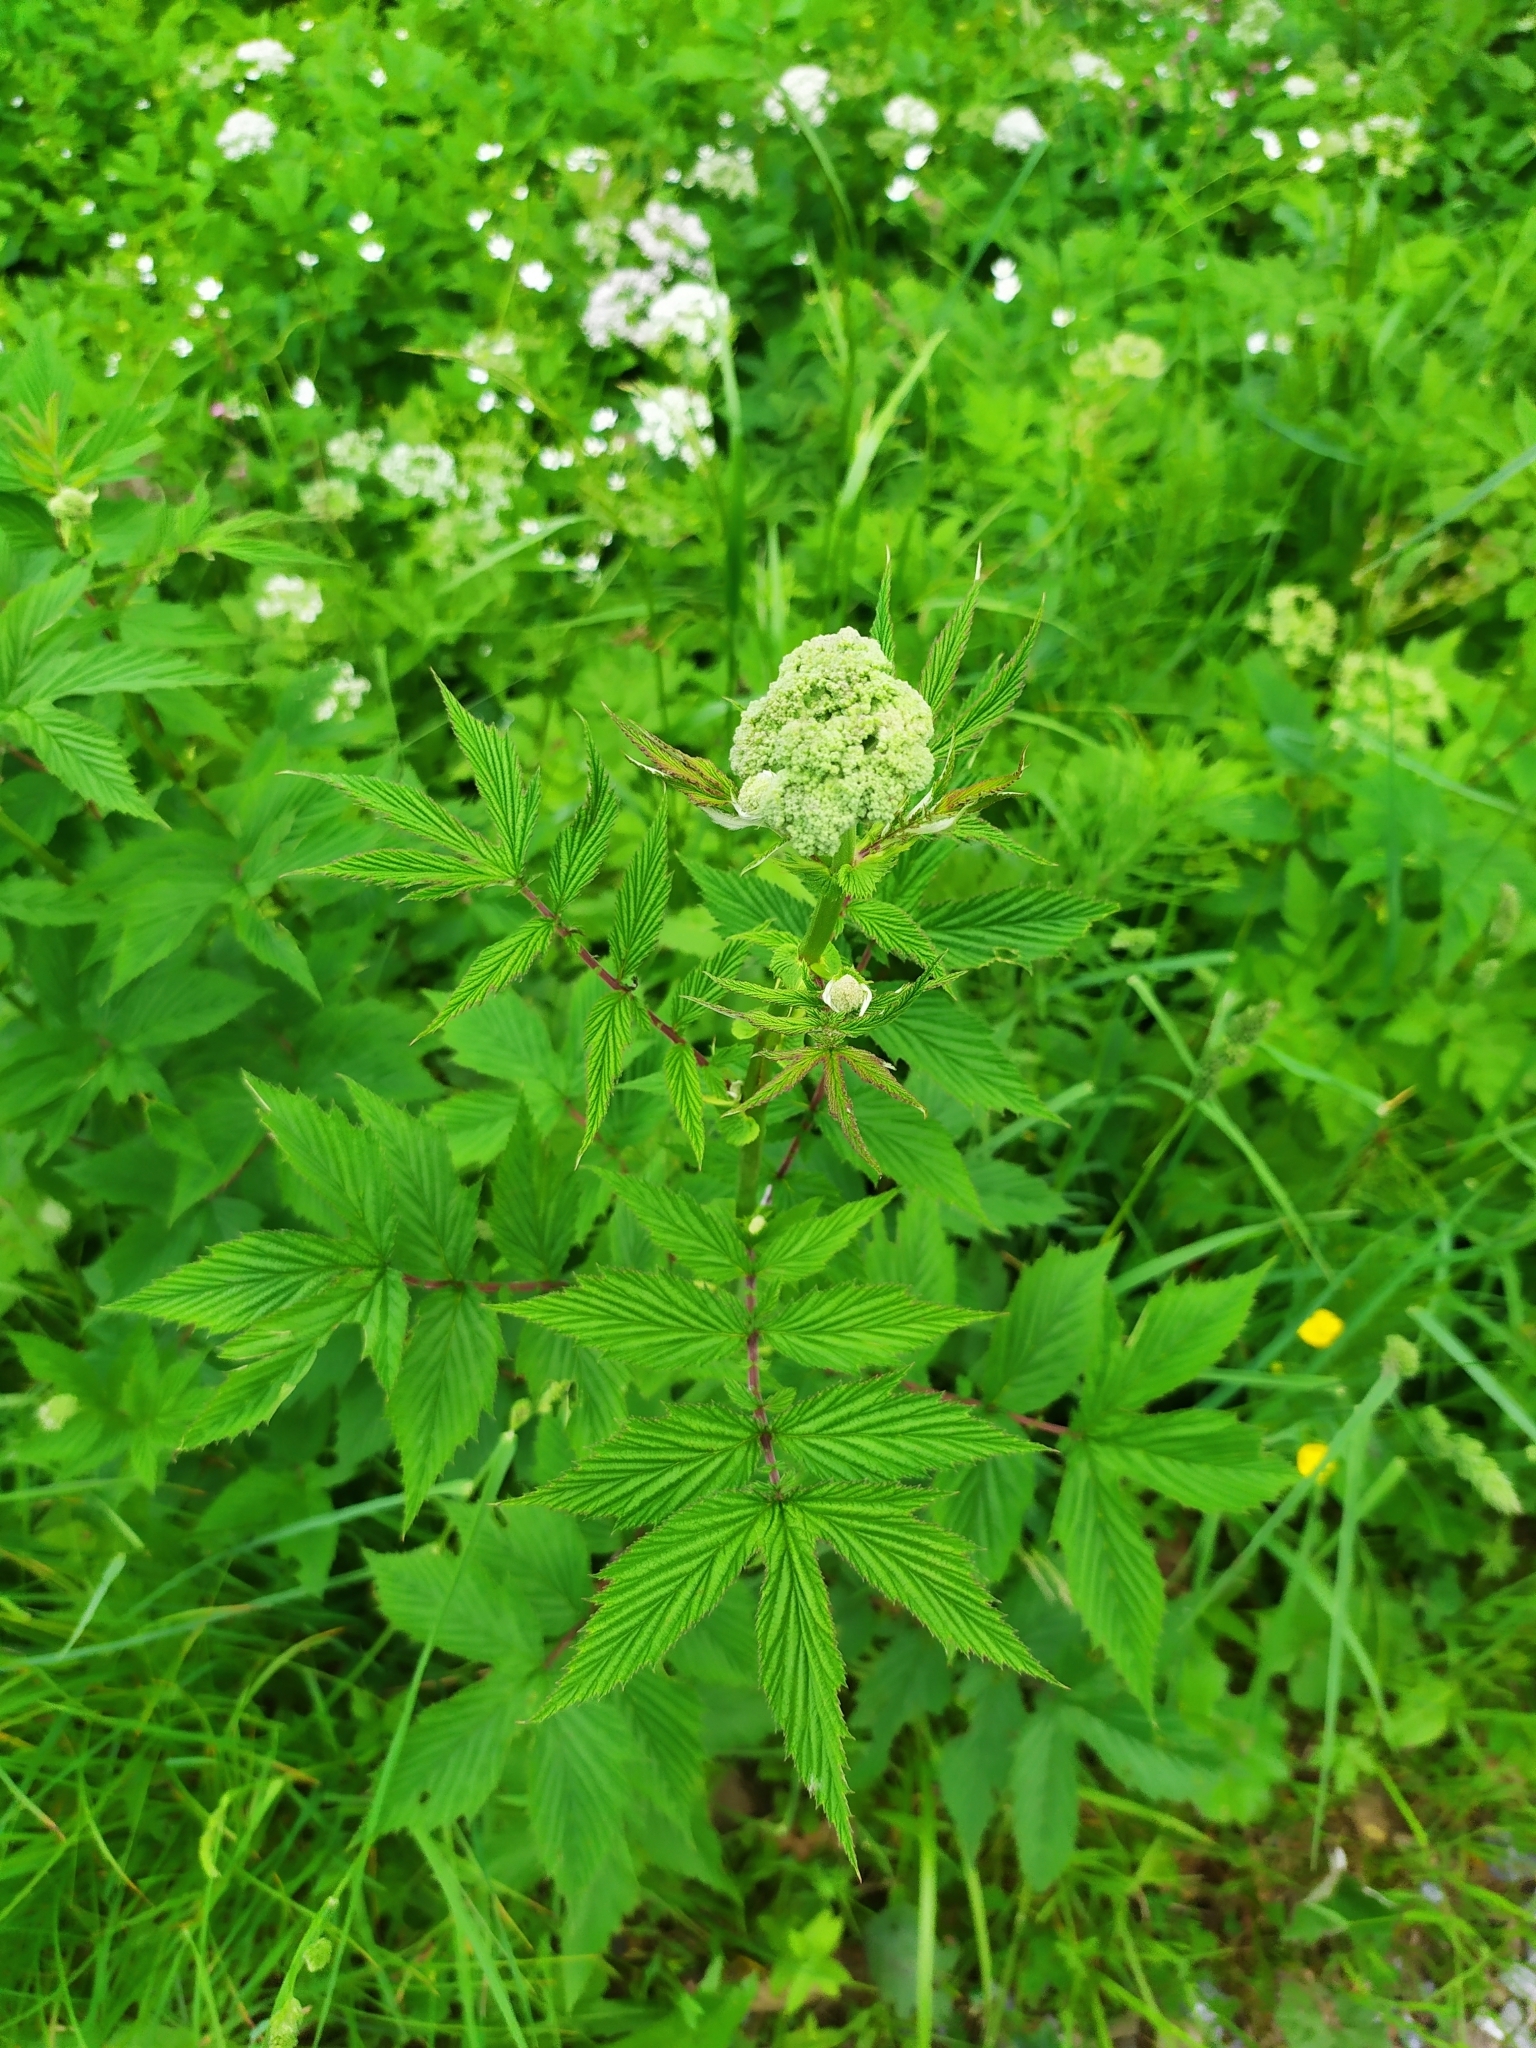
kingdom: Plantae
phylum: Tracheophyta
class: Magnoliopsida
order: Rosales
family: Rosaceae
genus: Filipendula
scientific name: Filipendula ulmaria
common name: Meadowsweet
